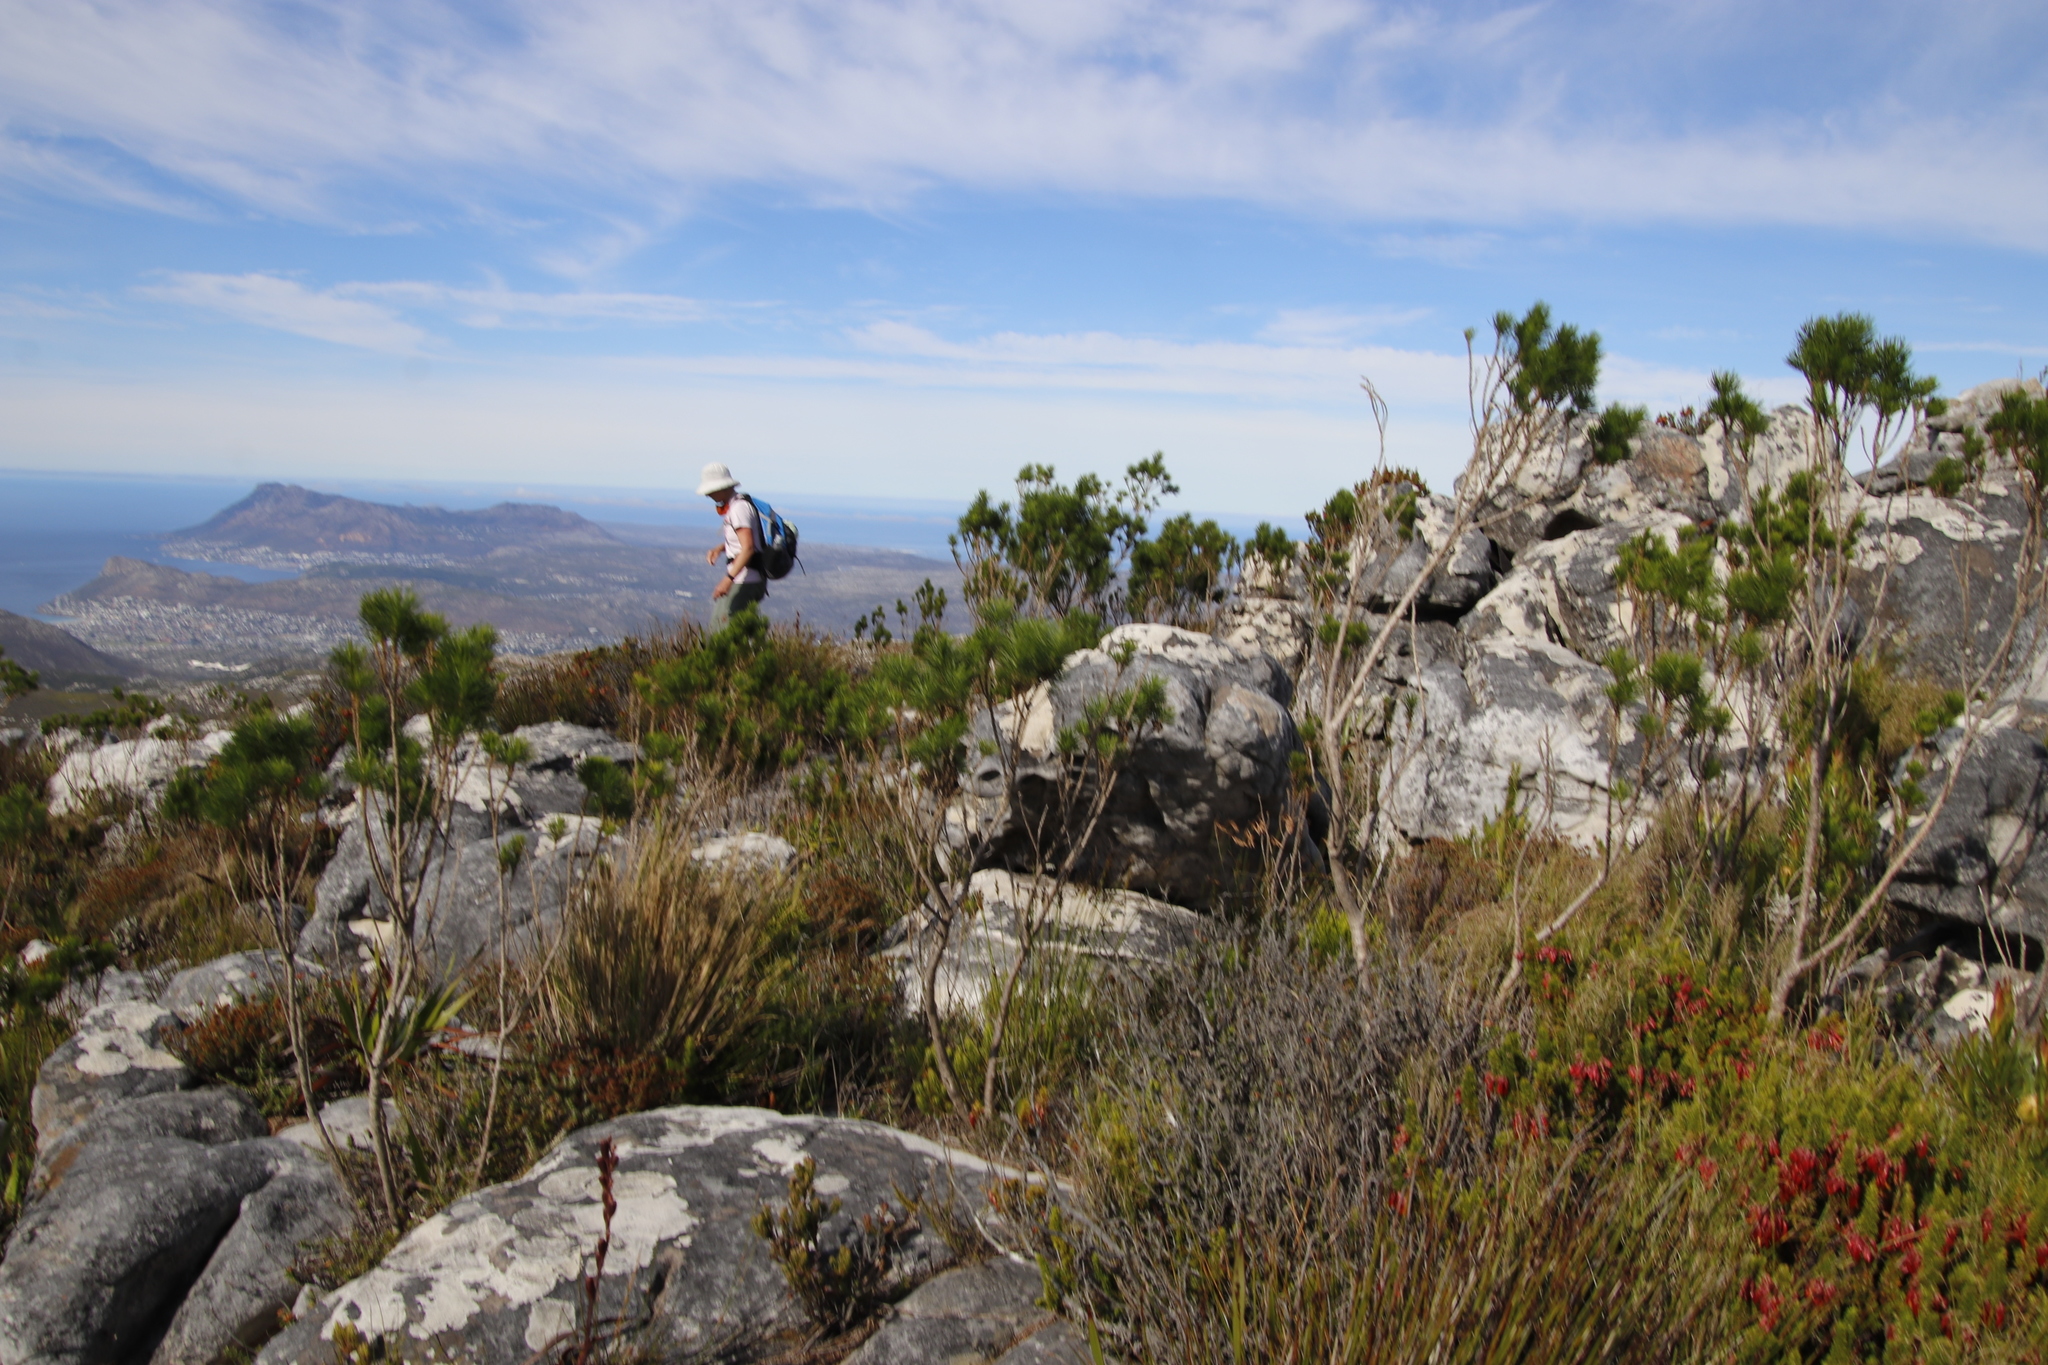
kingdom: Plantae
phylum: Tracheophyta
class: Magnoliopsida
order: Fabales
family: Fabaceae
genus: Psoralea
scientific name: Psoralea pinnata
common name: African scurfpea
